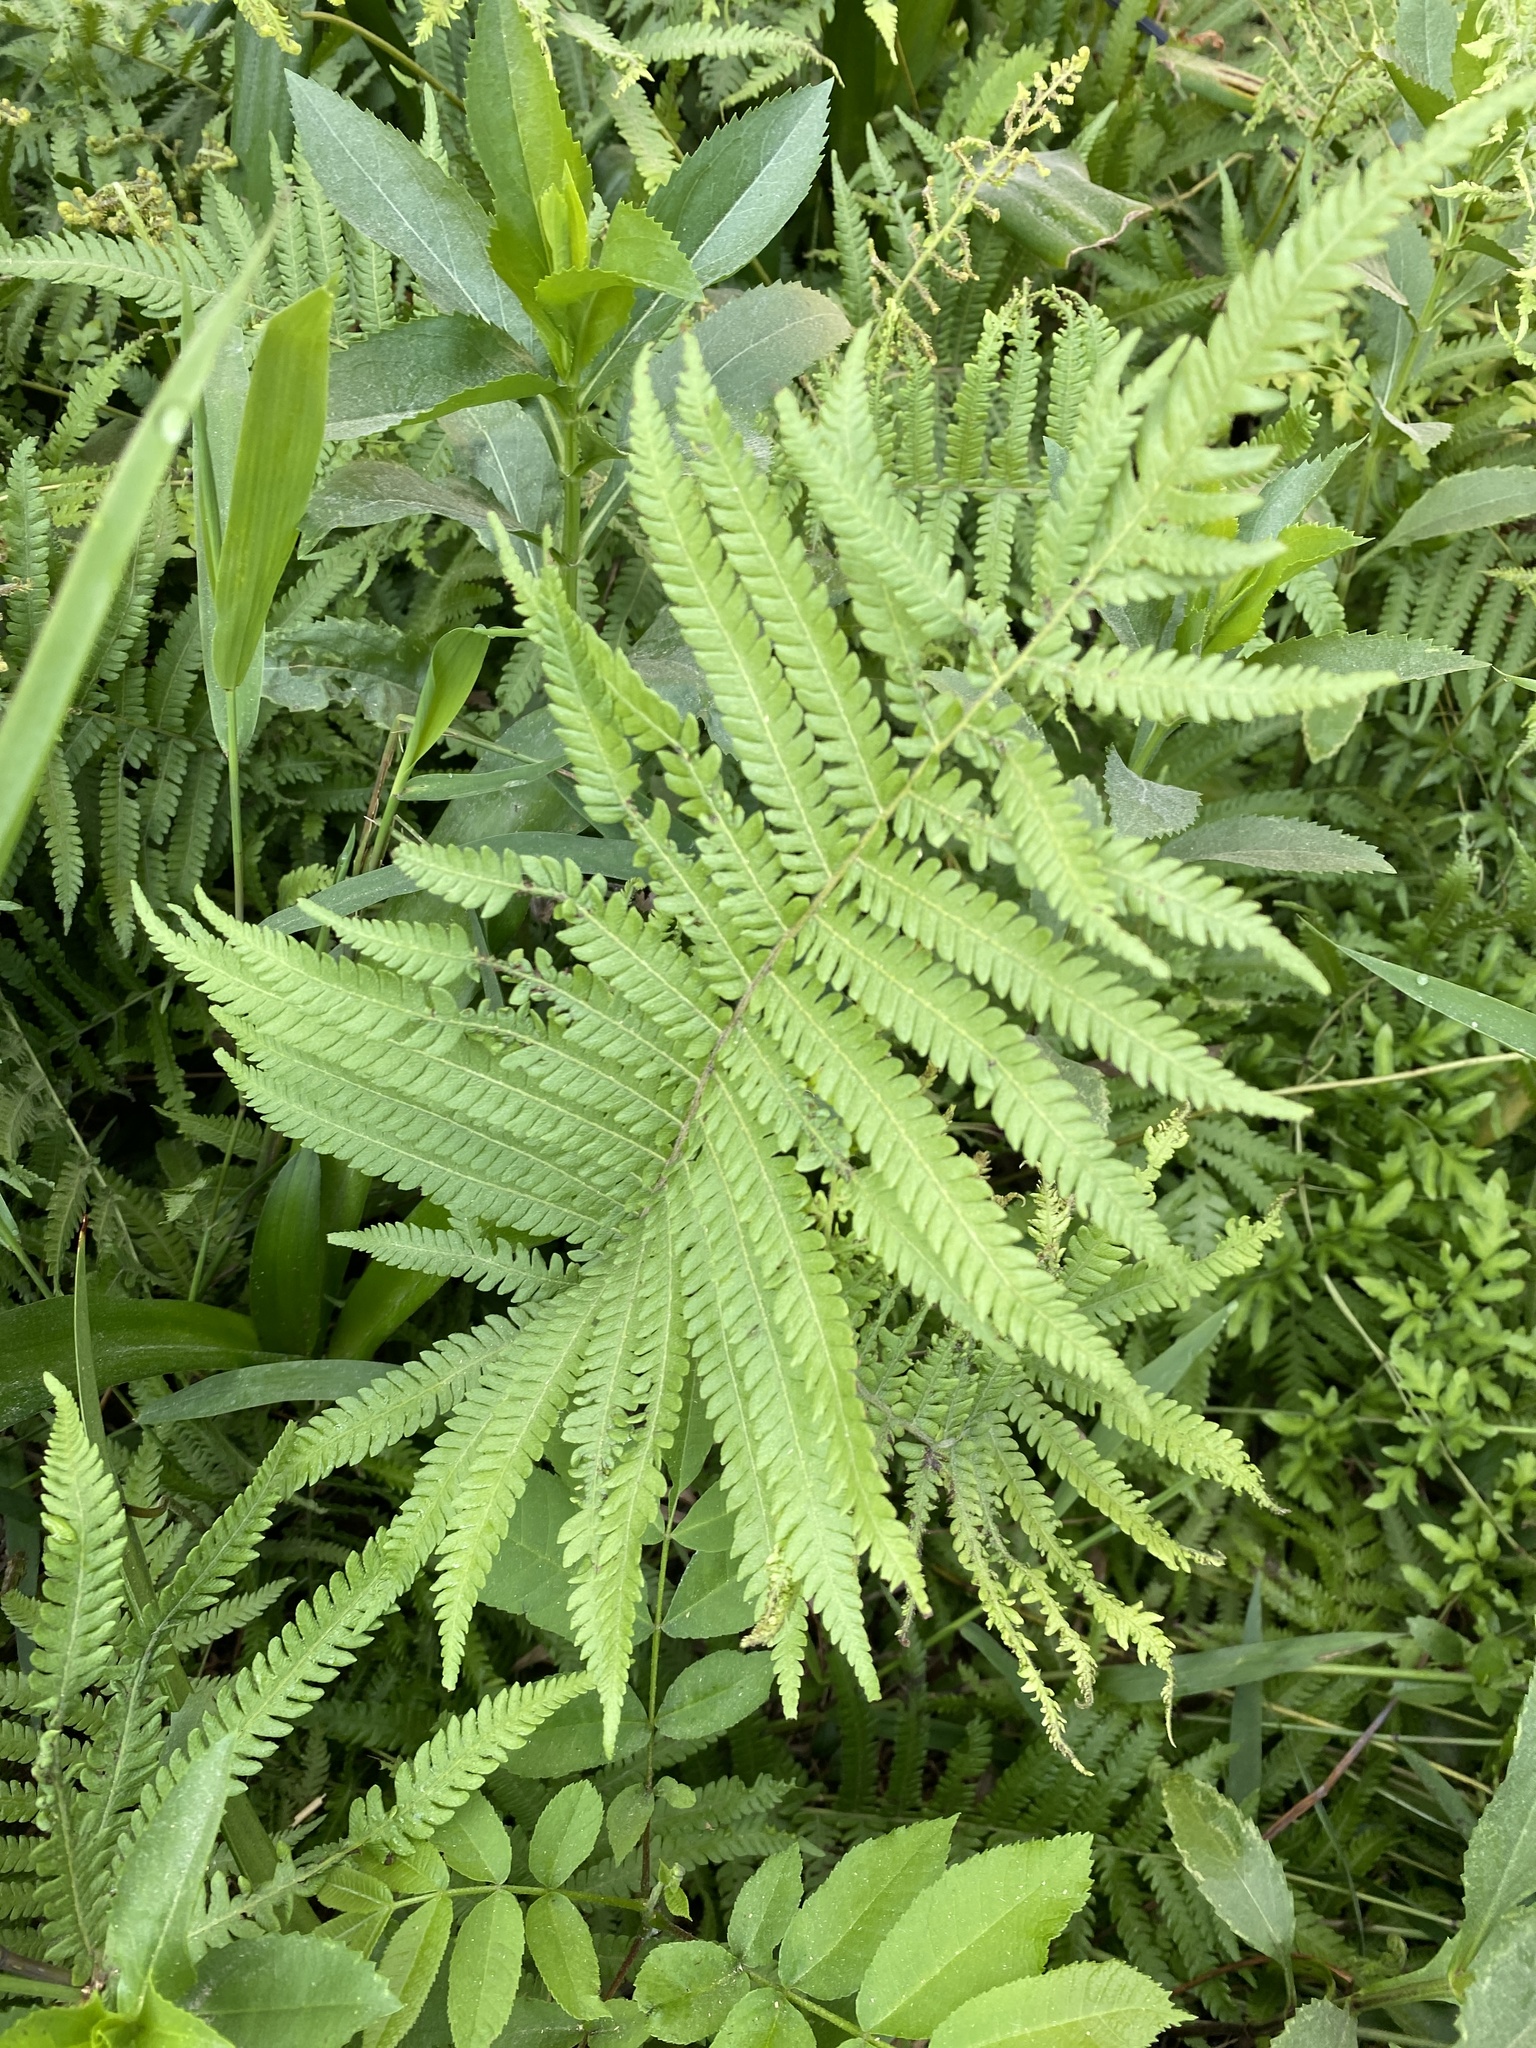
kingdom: Plantae
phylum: Tracheophyta
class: Polypodiopsida
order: Polypodiales
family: Thelypteridaceae
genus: Pelazoneuron
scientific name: Pelazoneuron kunthii
